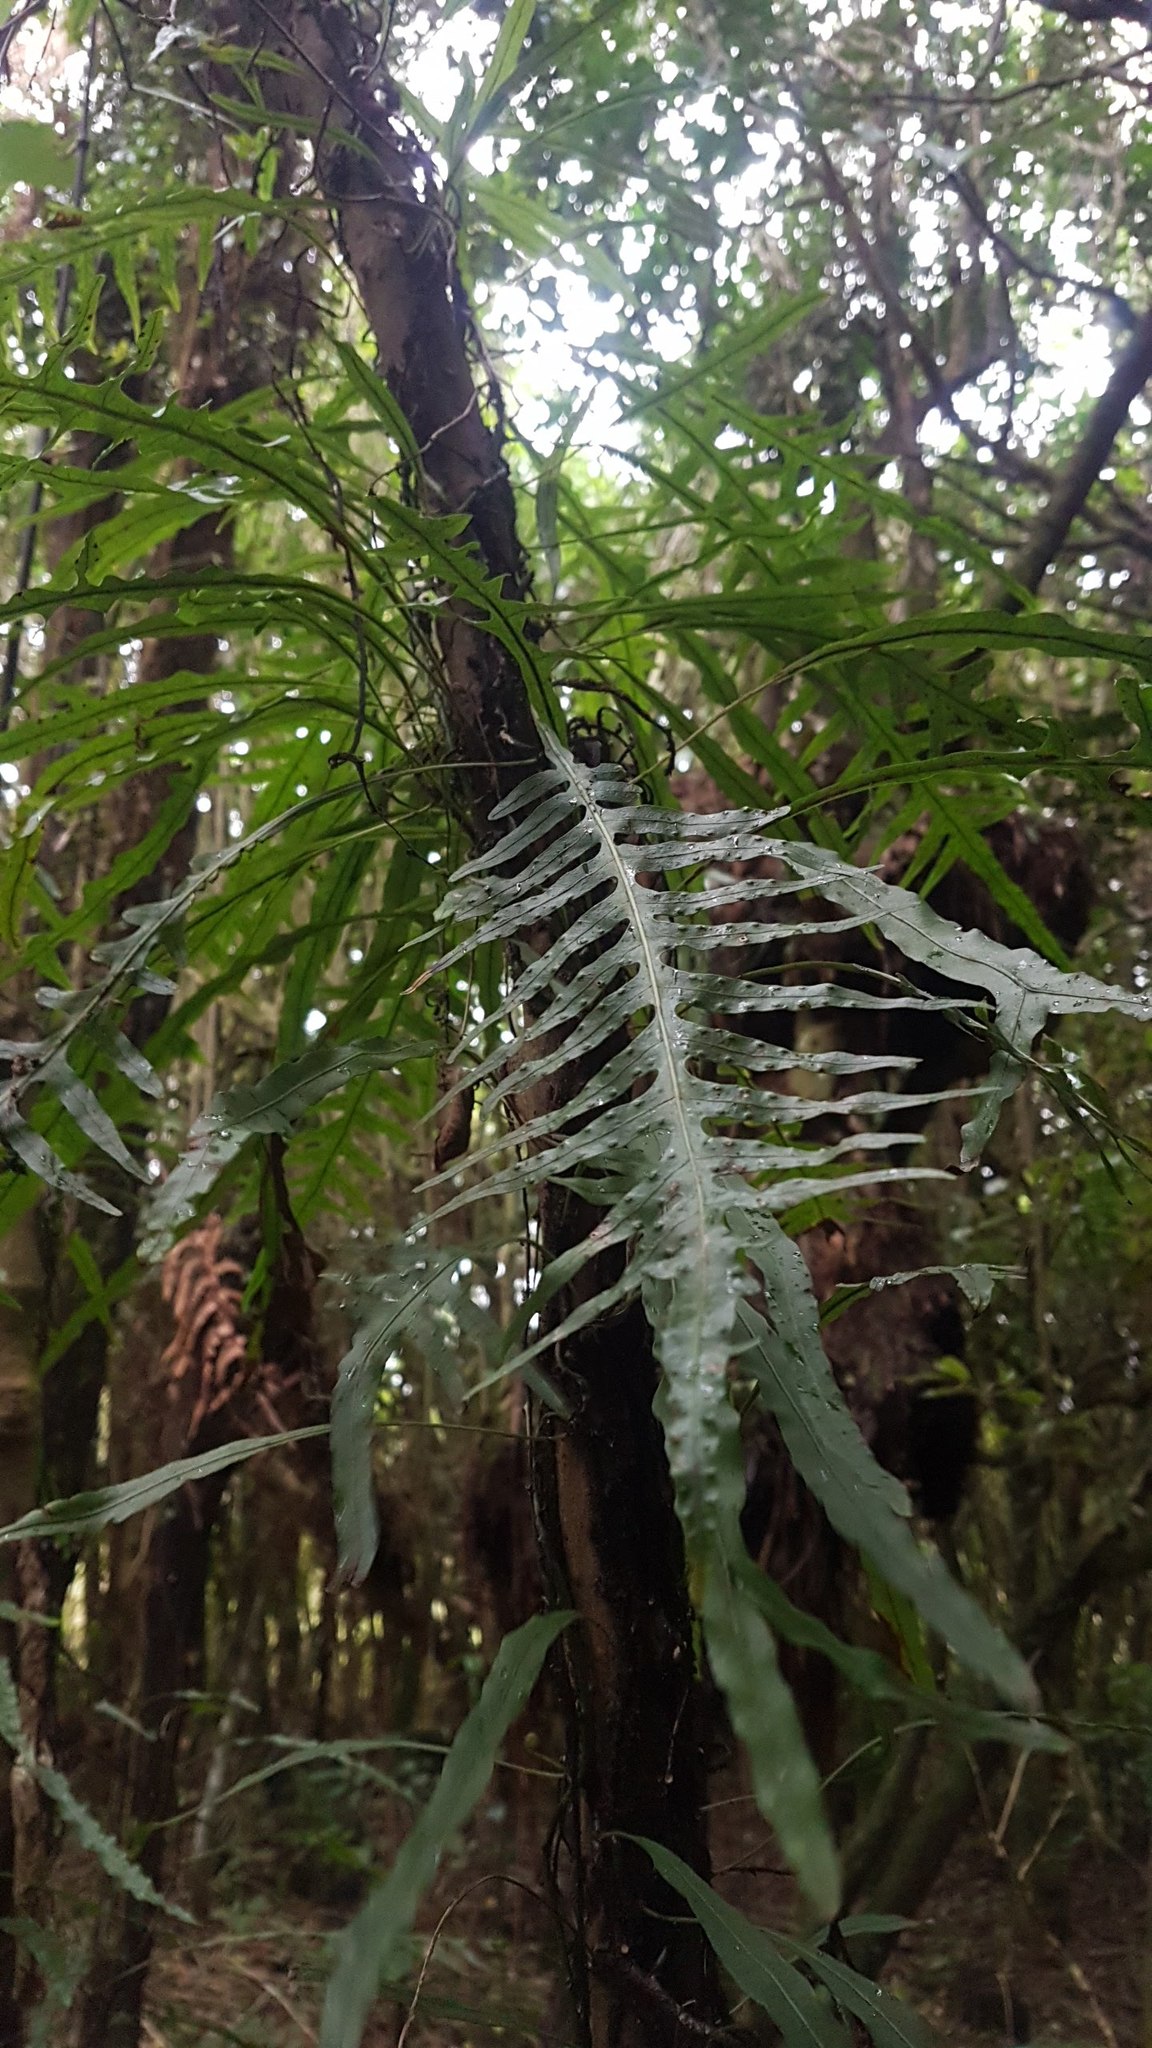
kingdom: Plantae
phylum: Tracheophyta
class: Polypodiopsida
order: Polypodiales
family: Polypodiaceae
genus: Lecanopteris
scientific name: Lecanopteris scandens
